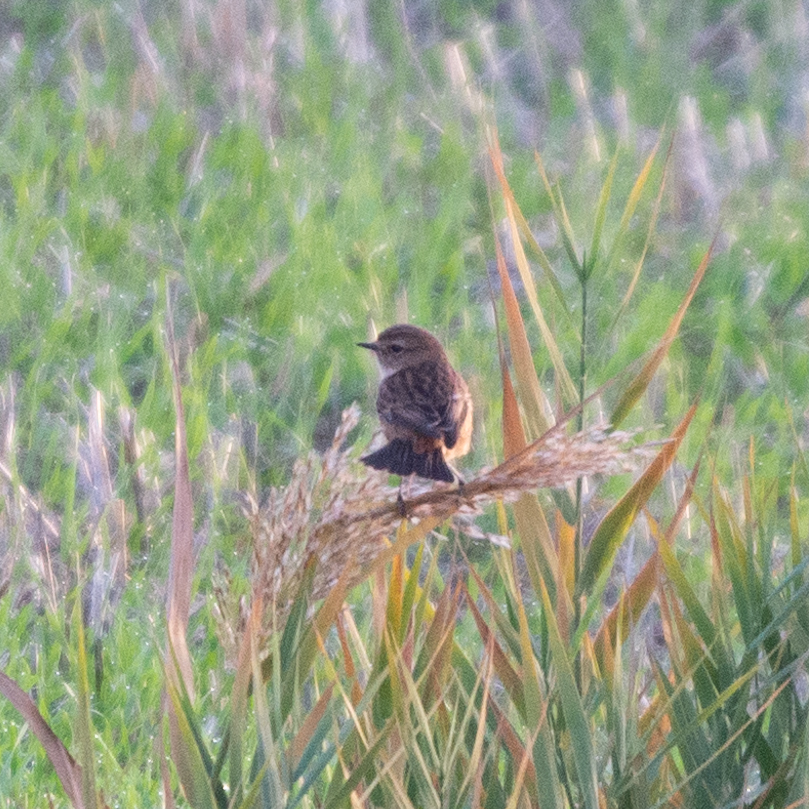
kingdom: Animalia
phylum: Chordata
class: Aves
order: Passeriformes
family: Muscicapidae
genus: Saxicola
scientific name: Saxicola rubicola
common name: European stonechat
